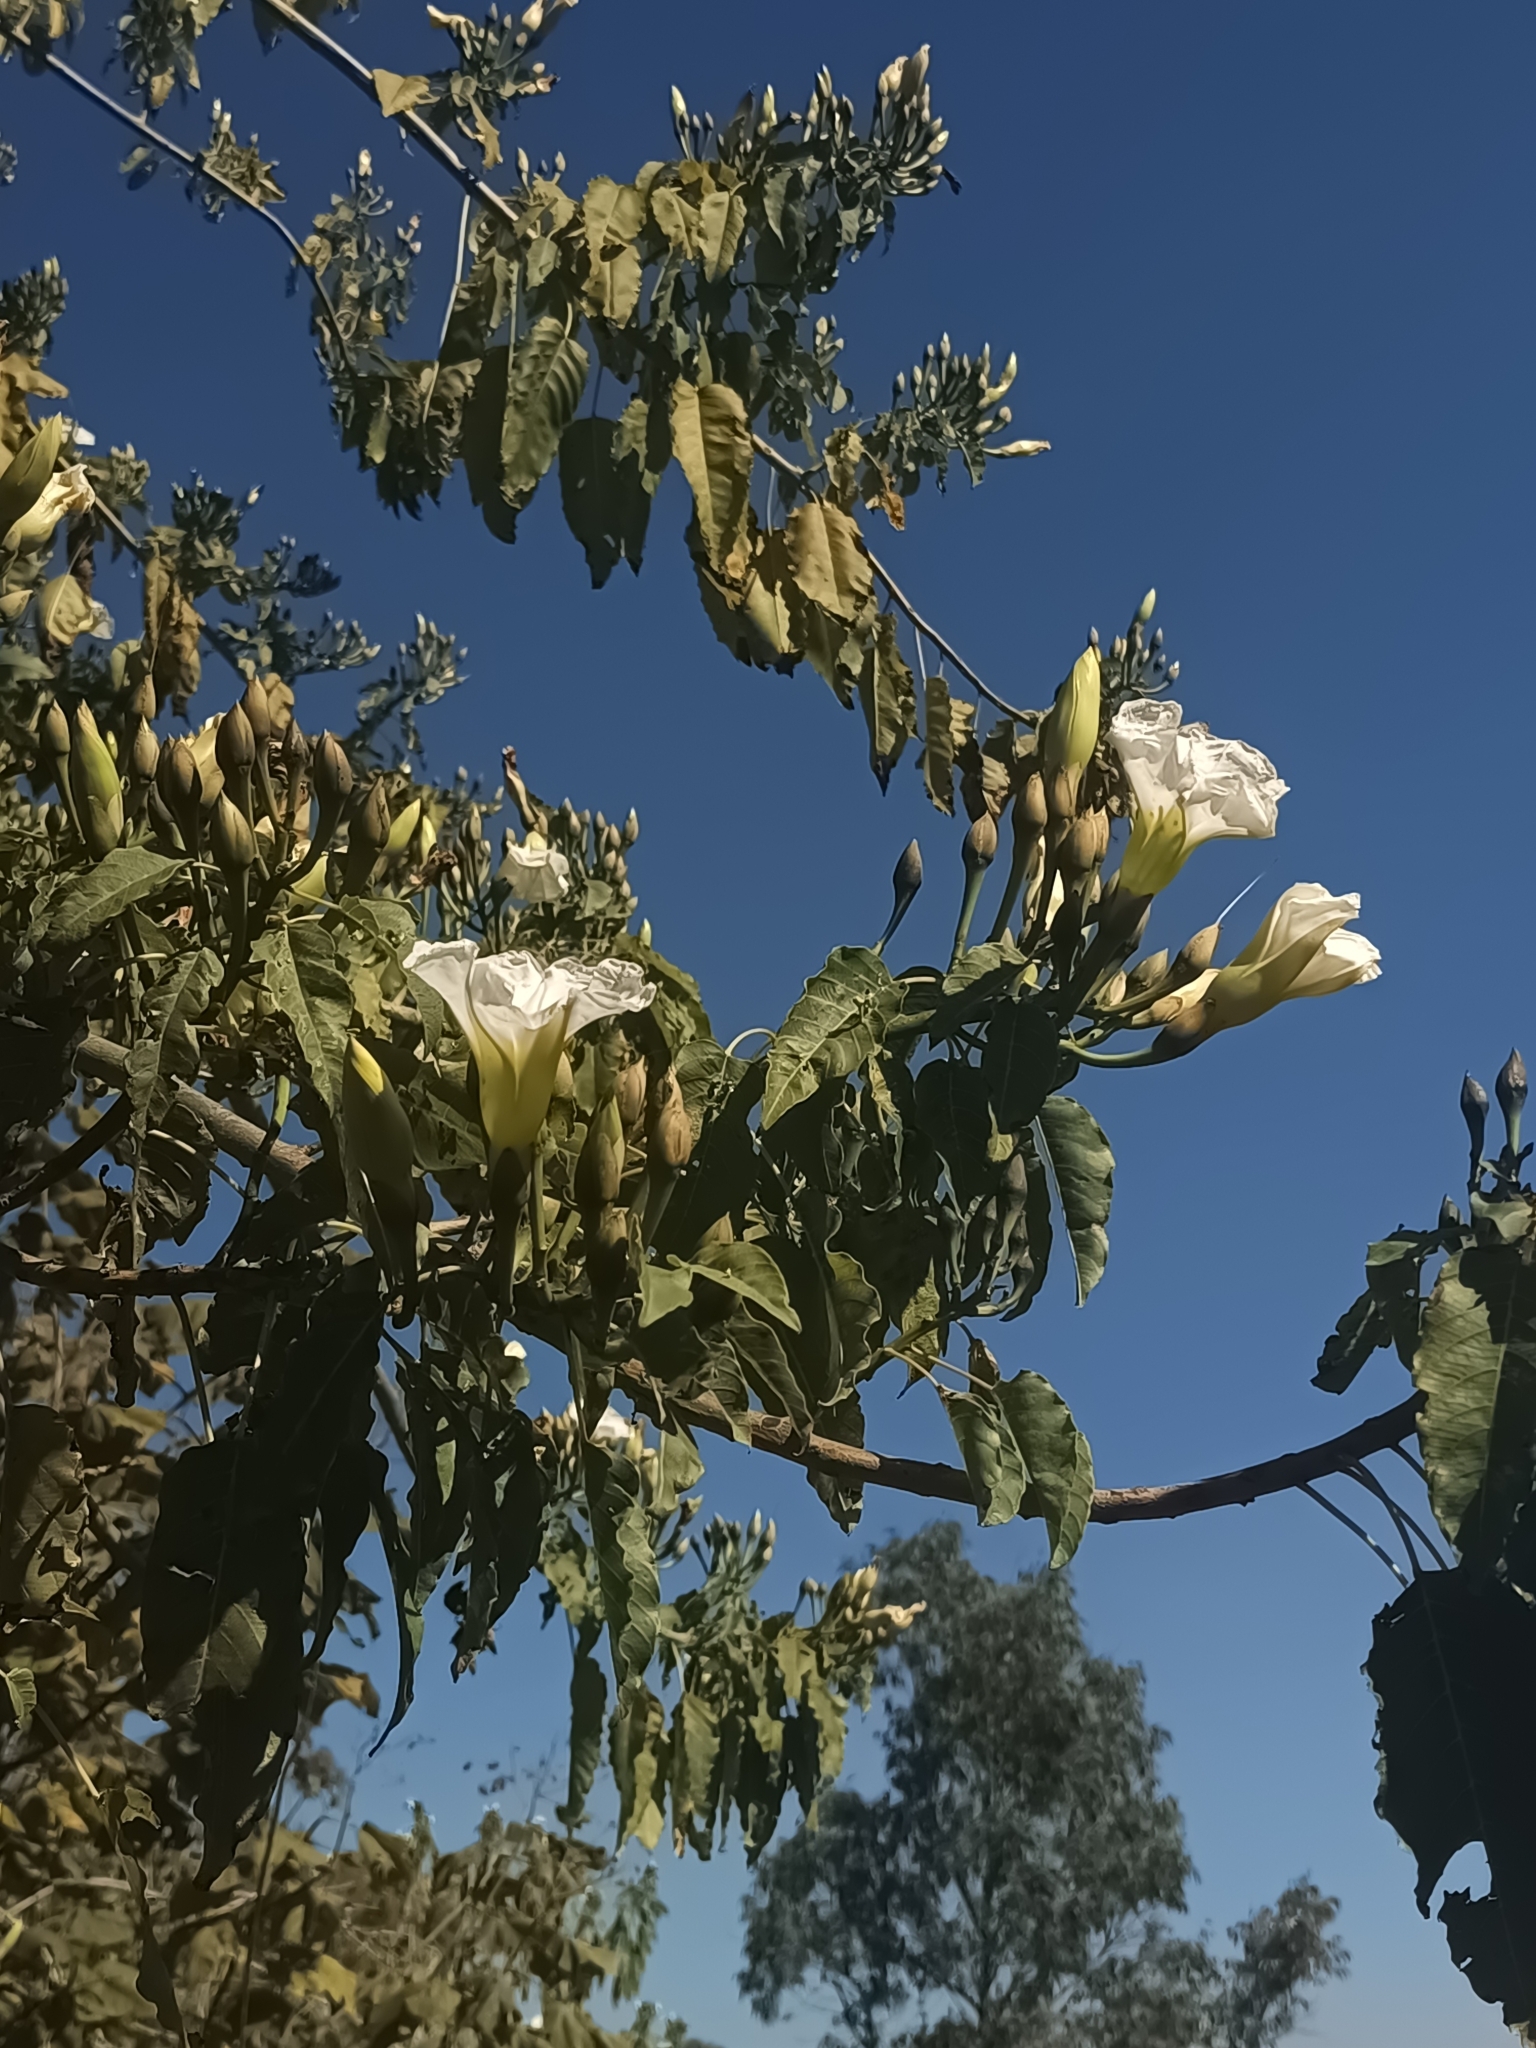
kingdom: Plantae
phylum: Tracheophyta
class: Magnoliopsida
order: Solanales
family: Convolvulaceae
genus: Ipomoea
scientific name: Ipomoea intrapilosa
